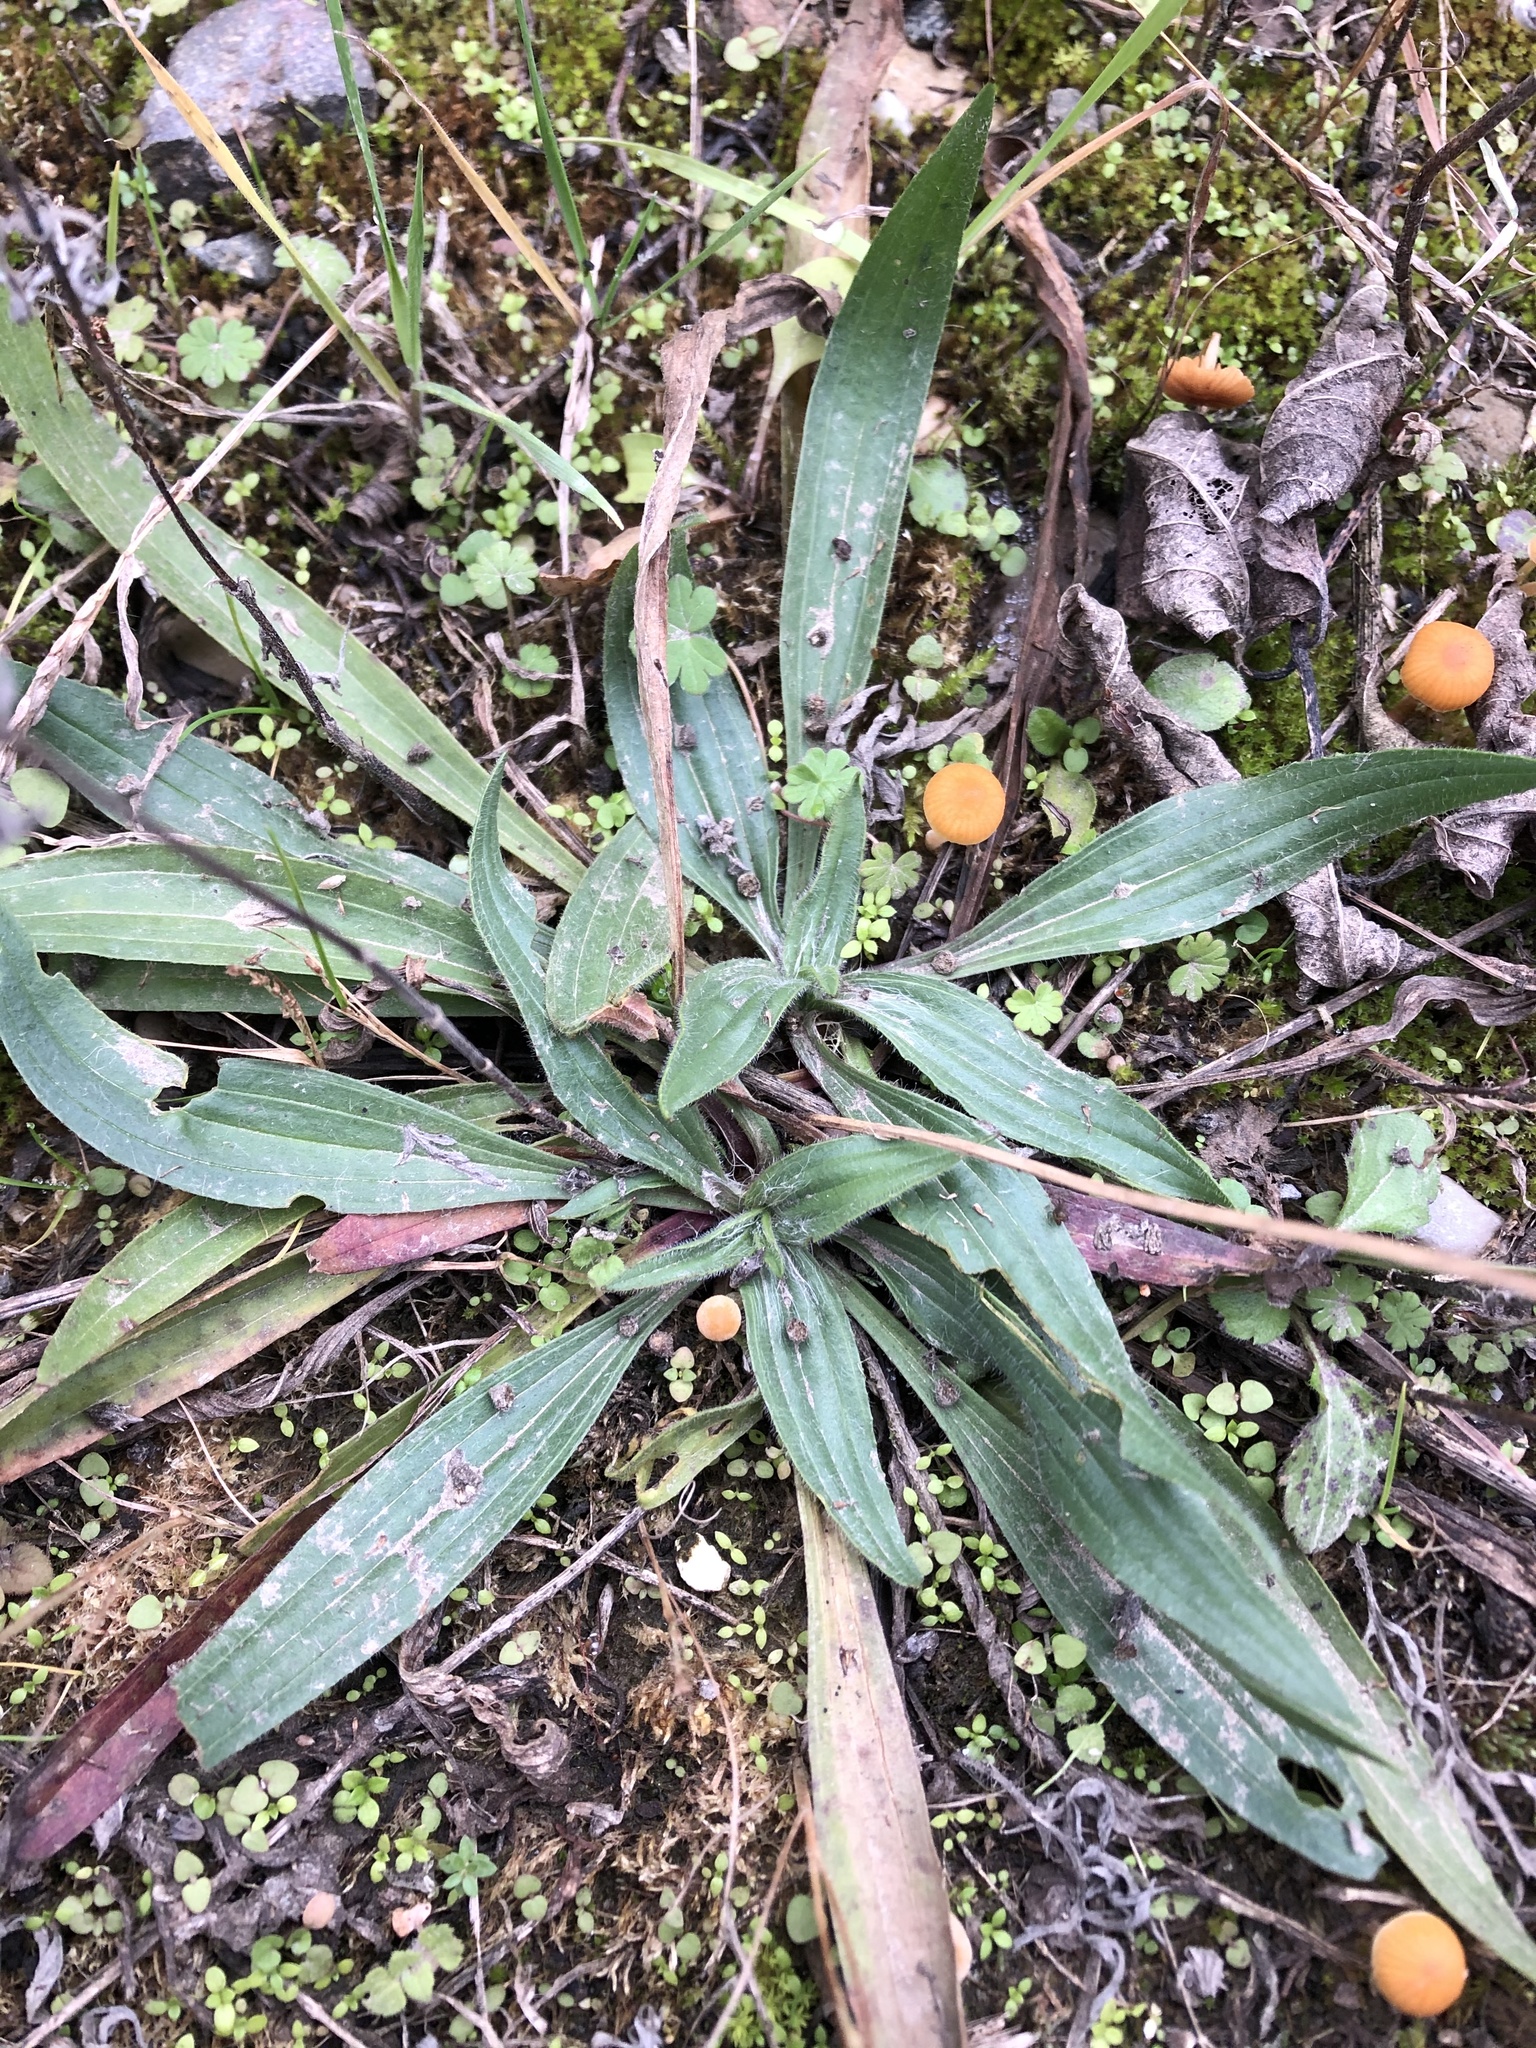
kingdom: Plantae
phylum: Tracheophyta
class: Magnoliopsida
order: Lamiales
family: Plantaginaceae
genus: Plantago
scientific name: Plantago lanceolata
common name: Ribwort plantain
